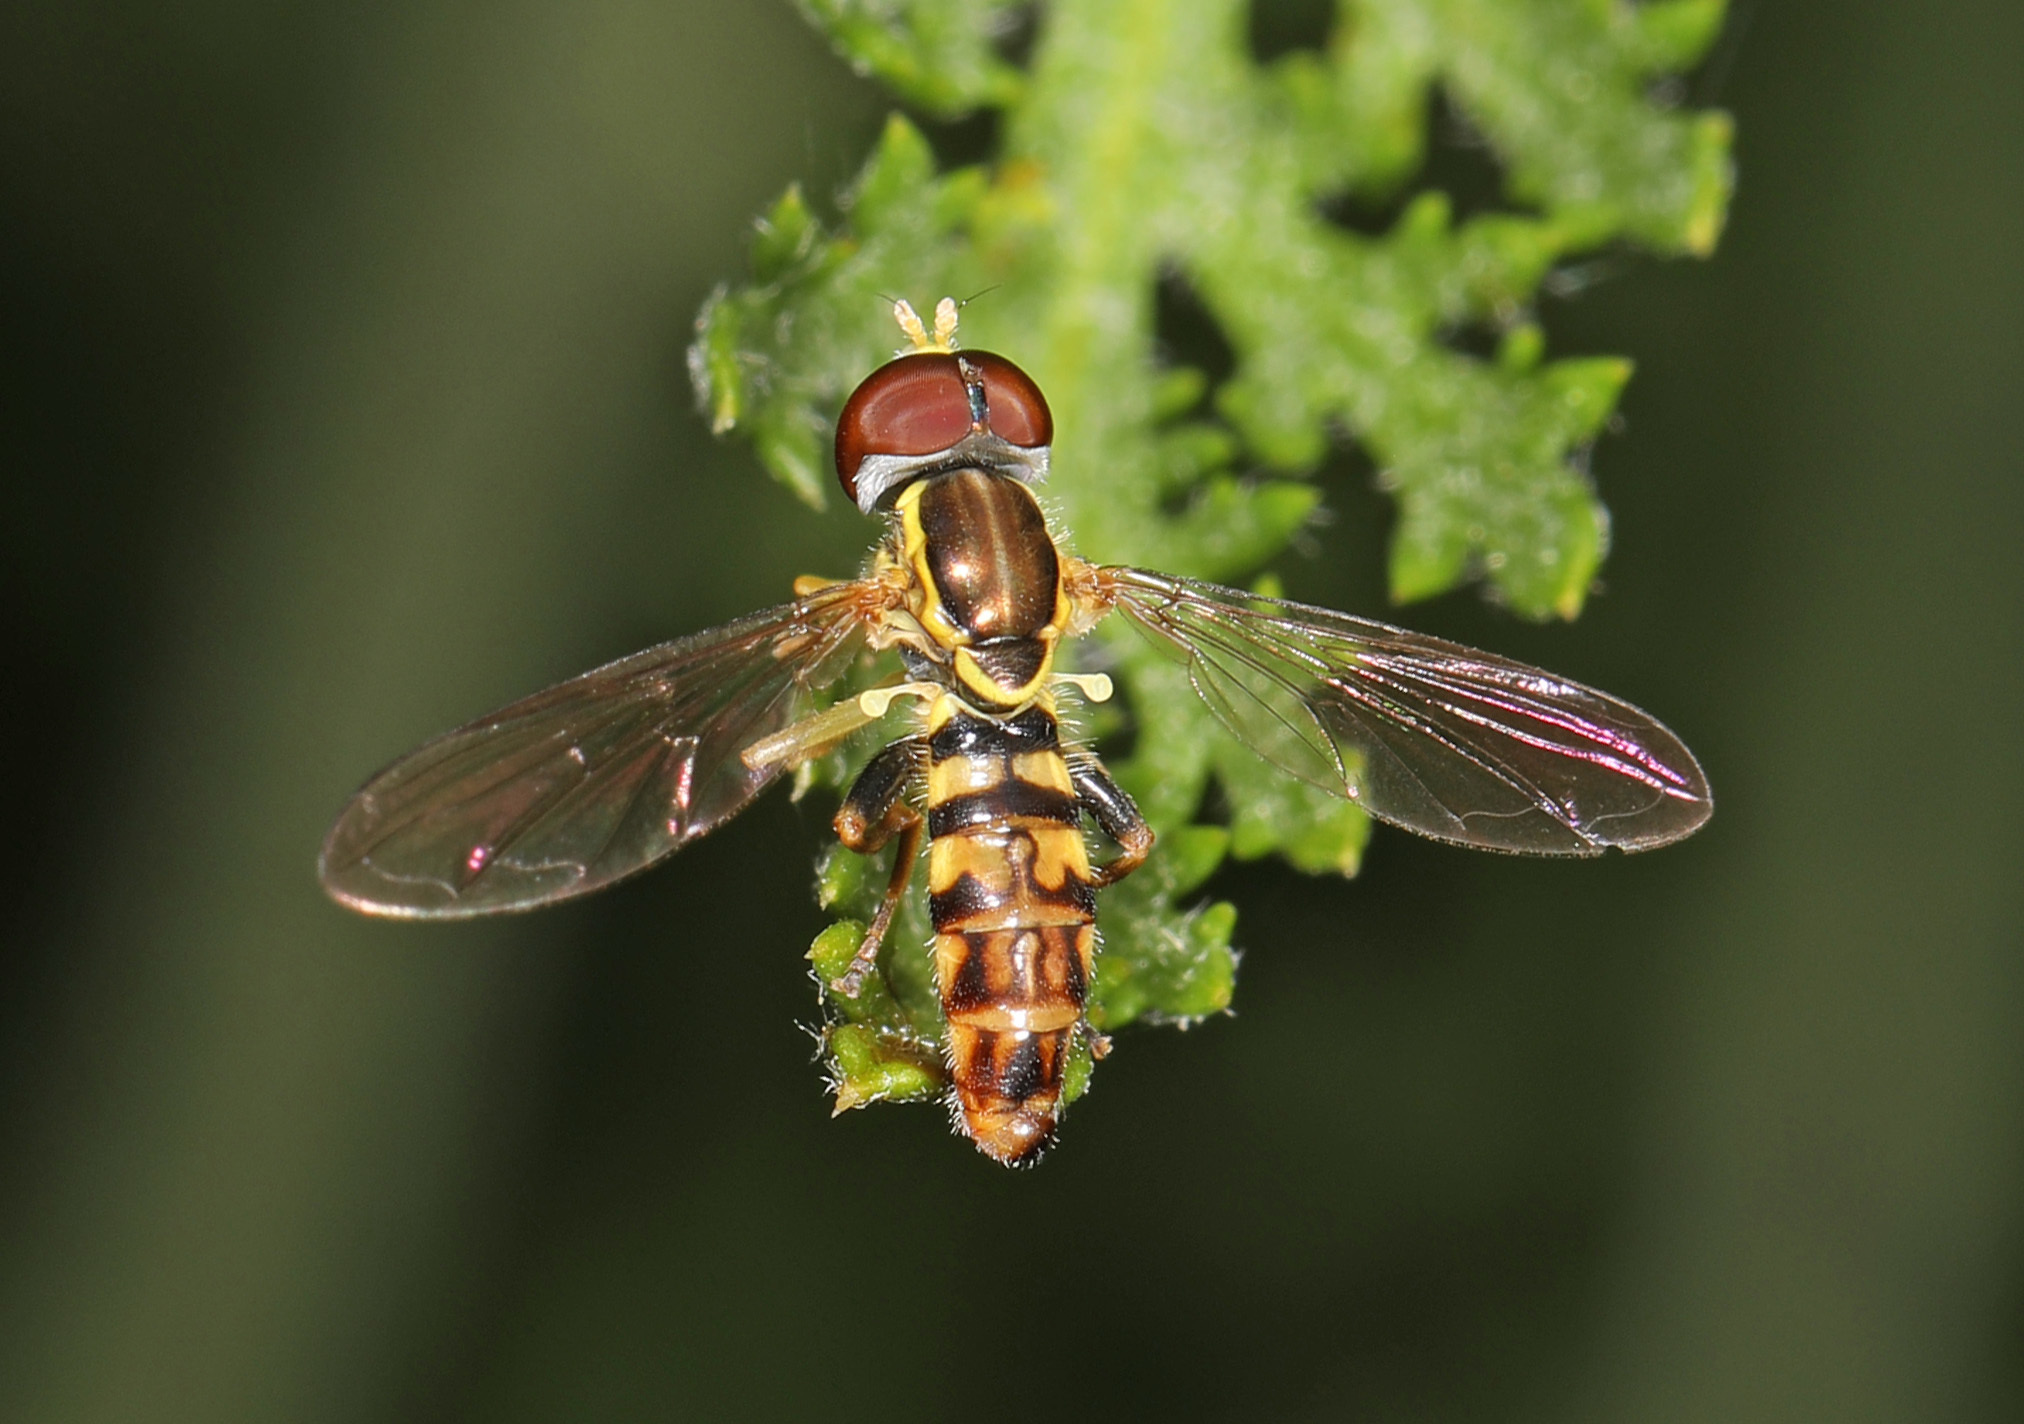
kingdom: Animalia
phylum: Arthropoda
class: Insecta
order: Diptera
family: Syrphidae
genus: Toxomerus
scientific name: Toxomerus geminatus
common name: Eastern calligrapher
